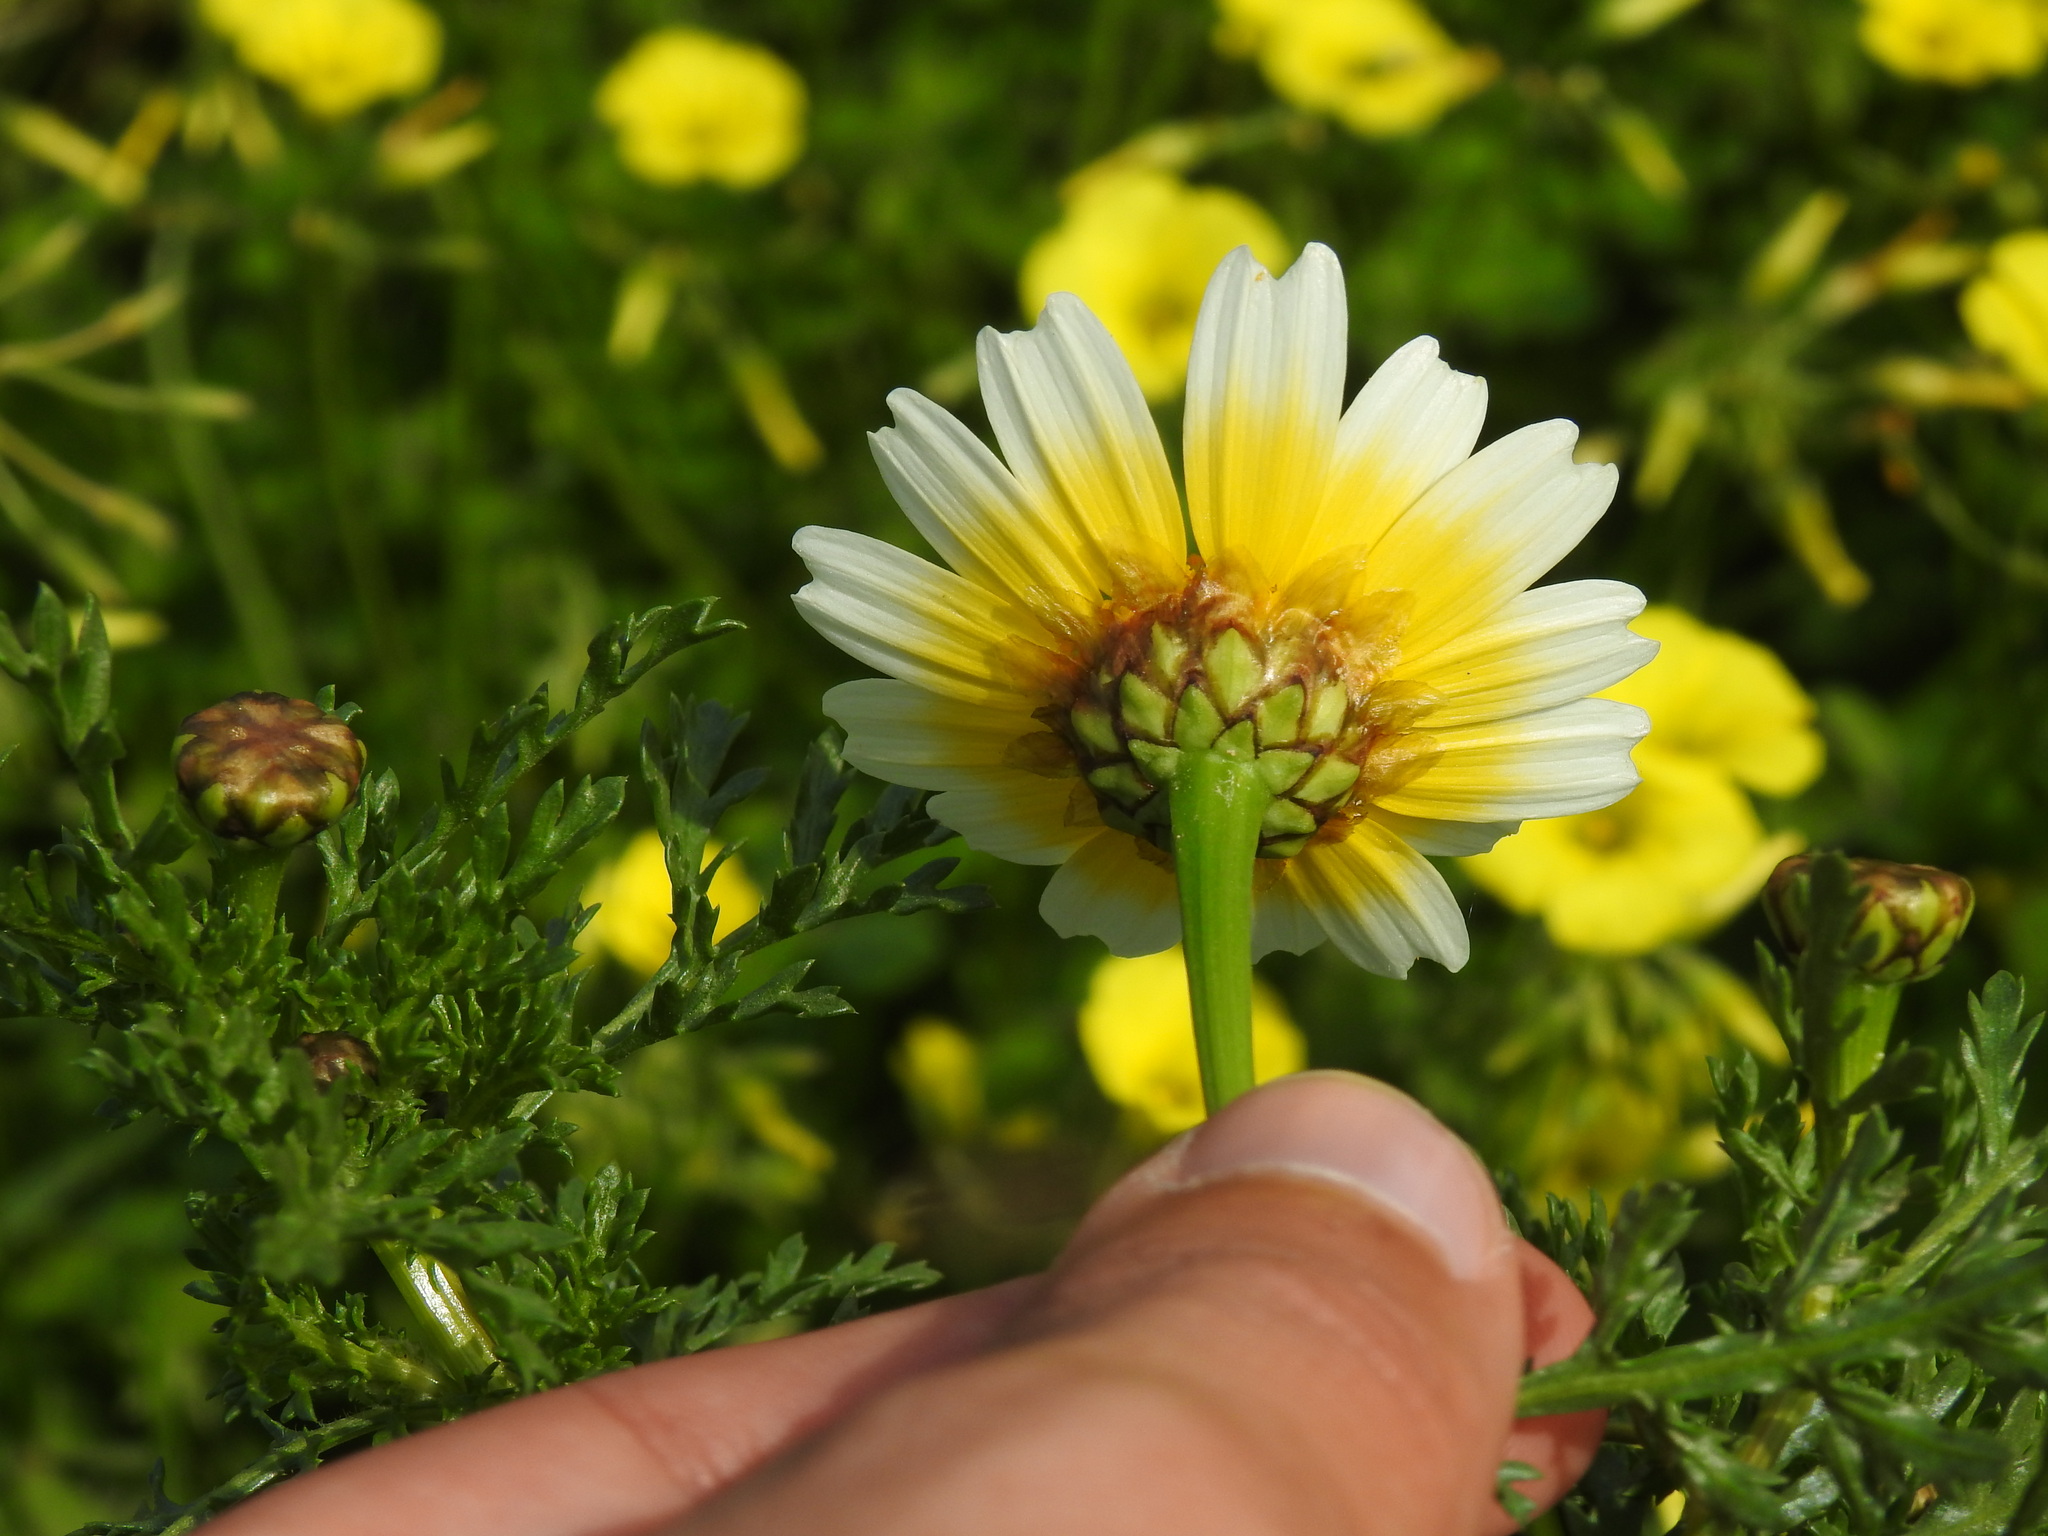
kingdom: Plantae
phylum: Tracheophyta
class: Magnoliopsida
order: Asterales
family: Asteraceae
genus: Glebionis
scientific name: Glebionis coronaria
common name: Crowndaisy
